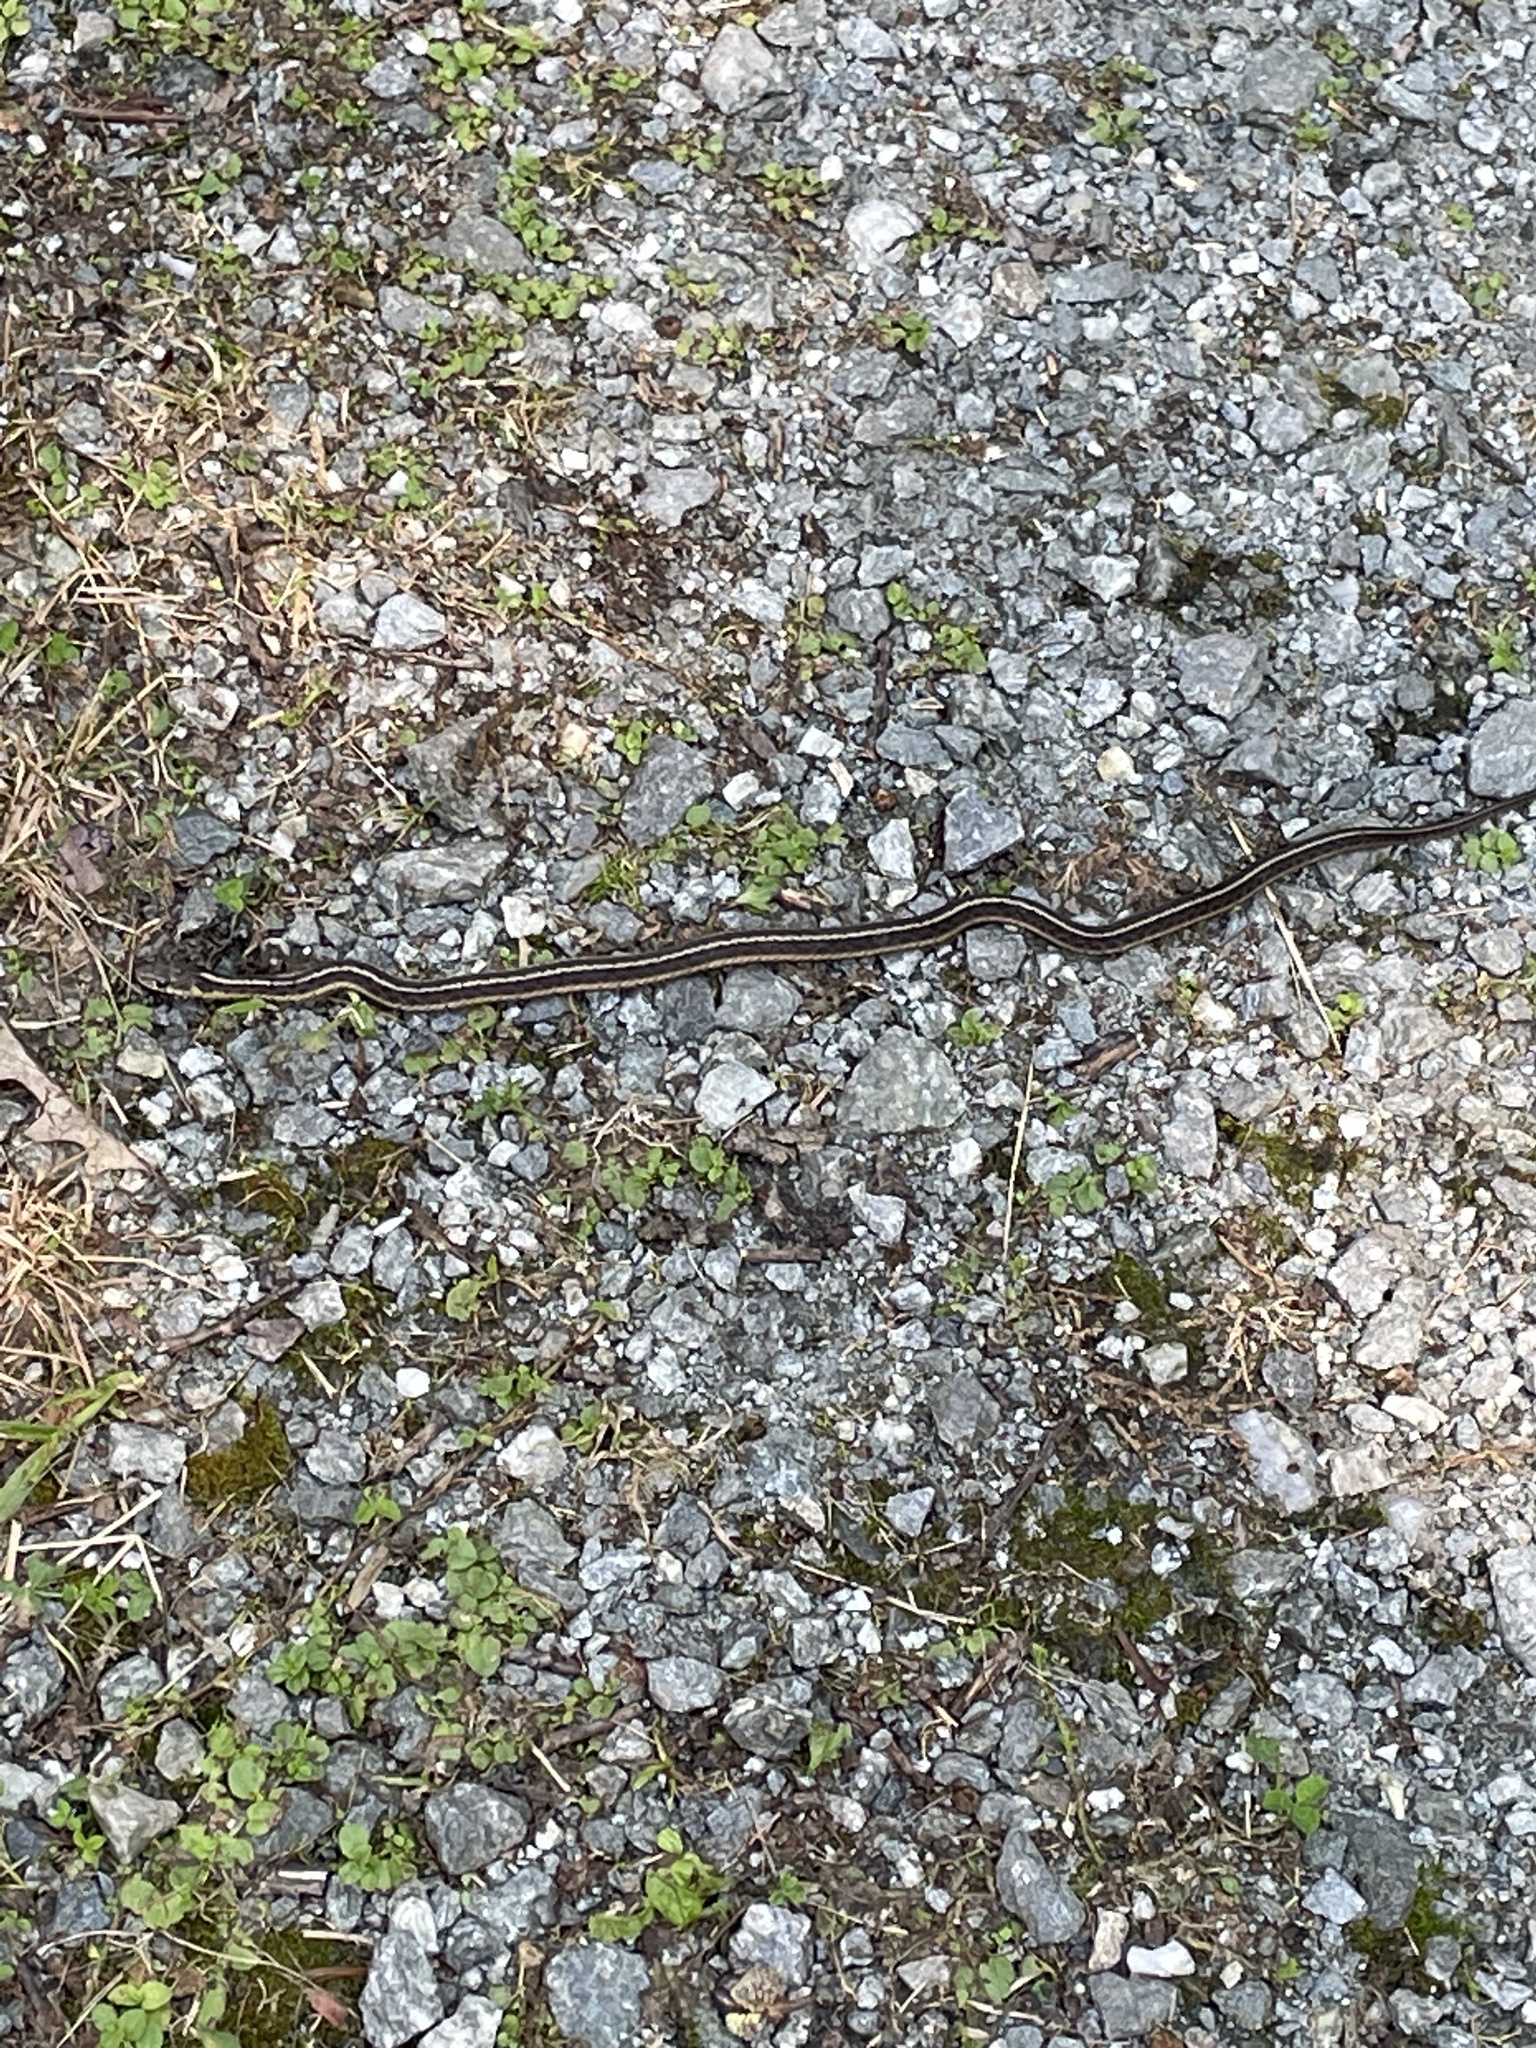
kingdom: Animalia
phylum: Chordata
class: Squamata
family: Colubridae
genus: Thamnophis
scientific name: Thamnophis sirtalis
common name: Common garter snake
